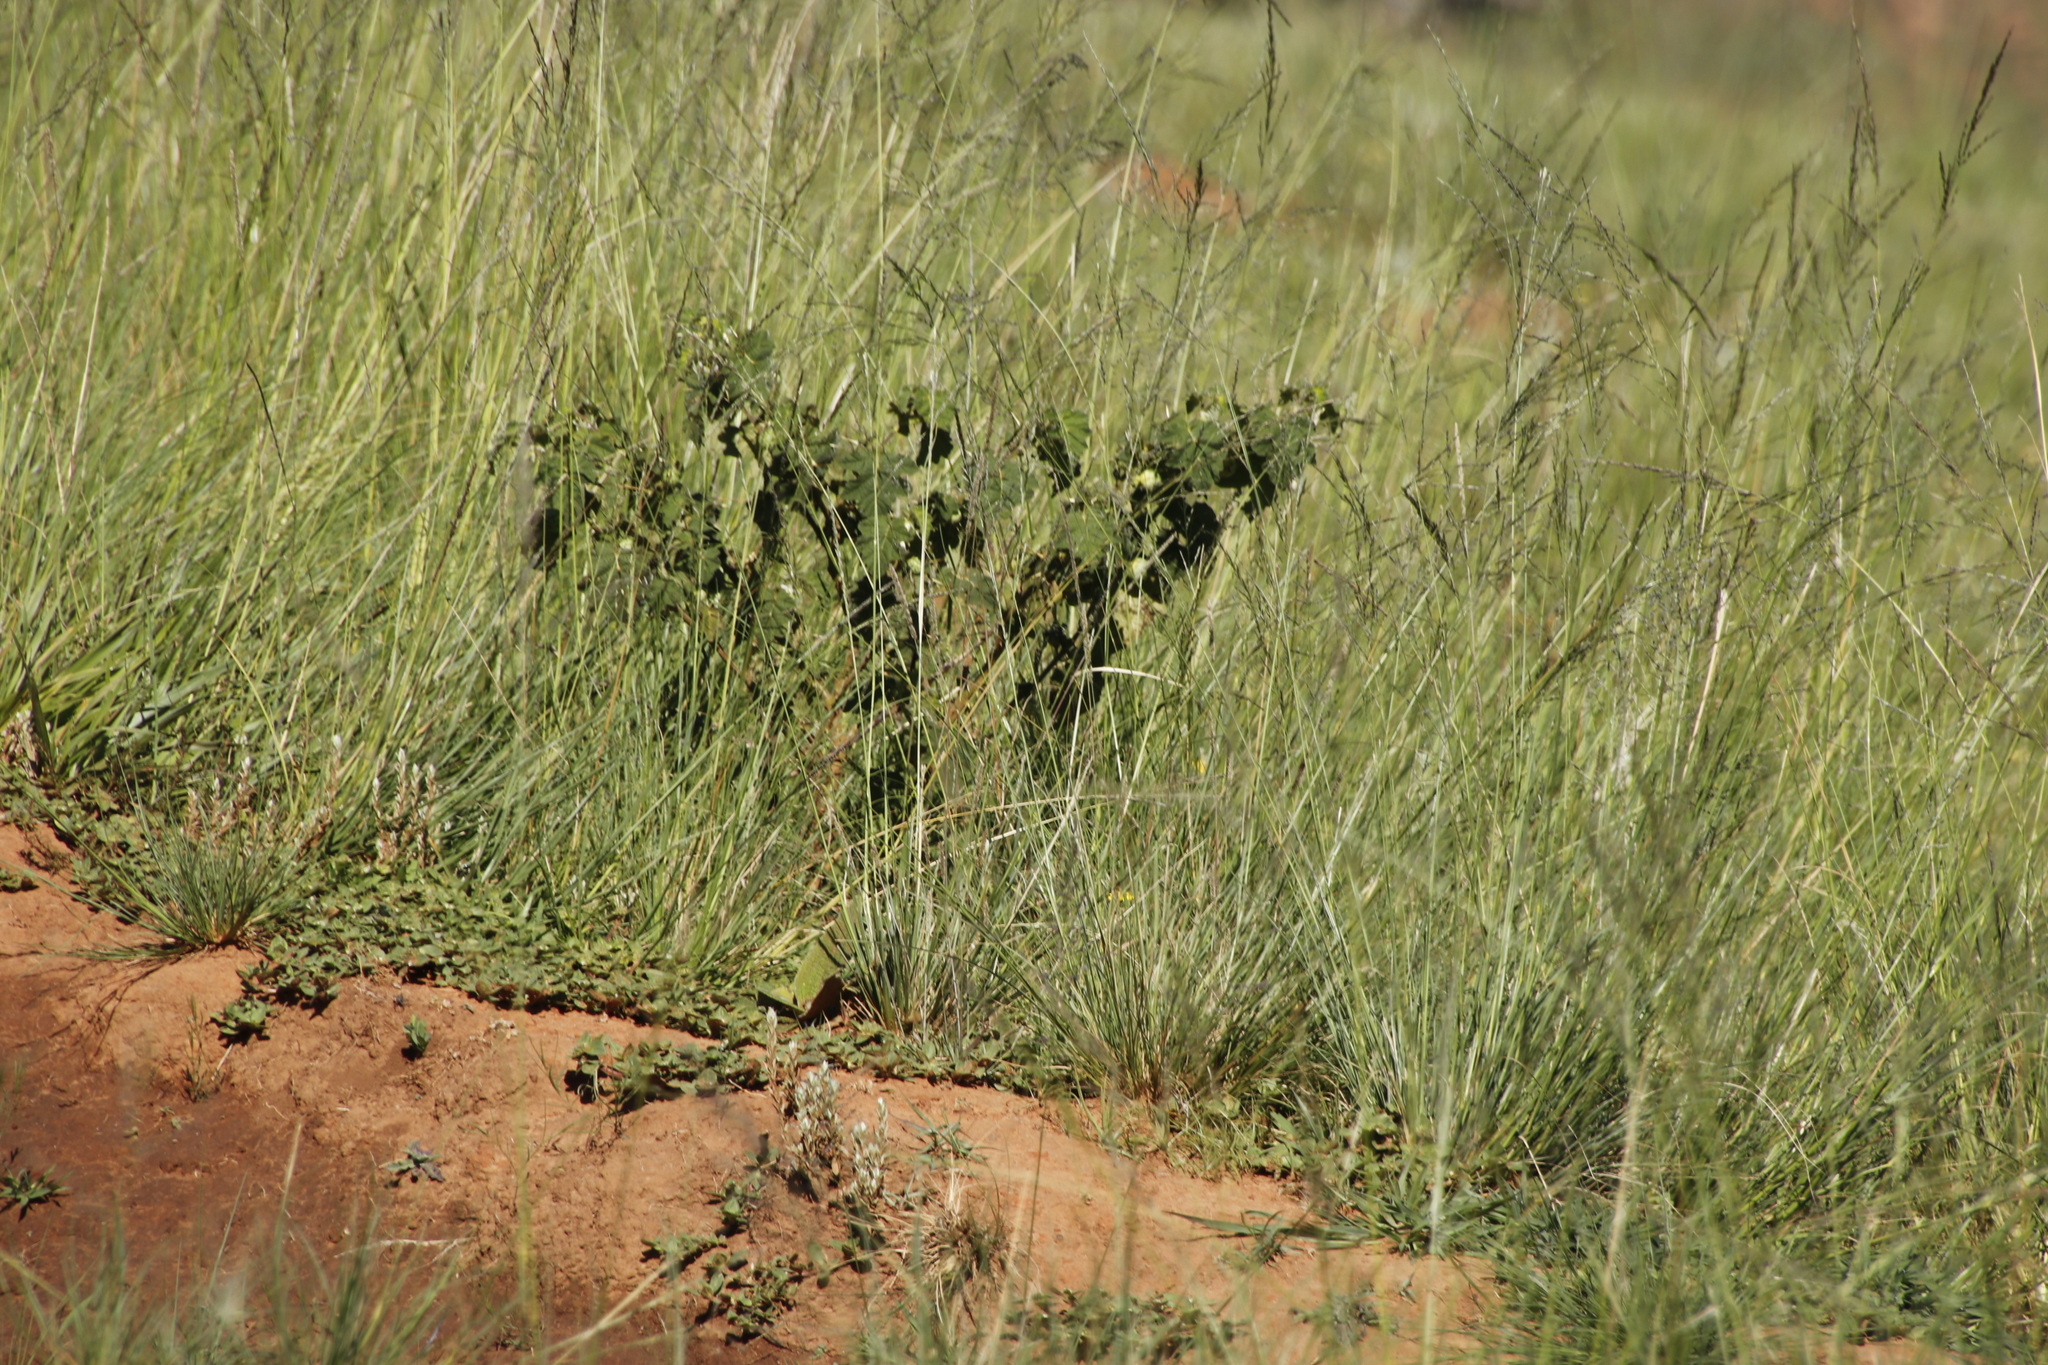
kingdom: Plantae
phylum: Tracheophyta
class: Magnoliopsida
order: Solanales
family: Solanaceae
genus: Solanum
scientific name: Solanum viarum
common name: Tropical soda apple
